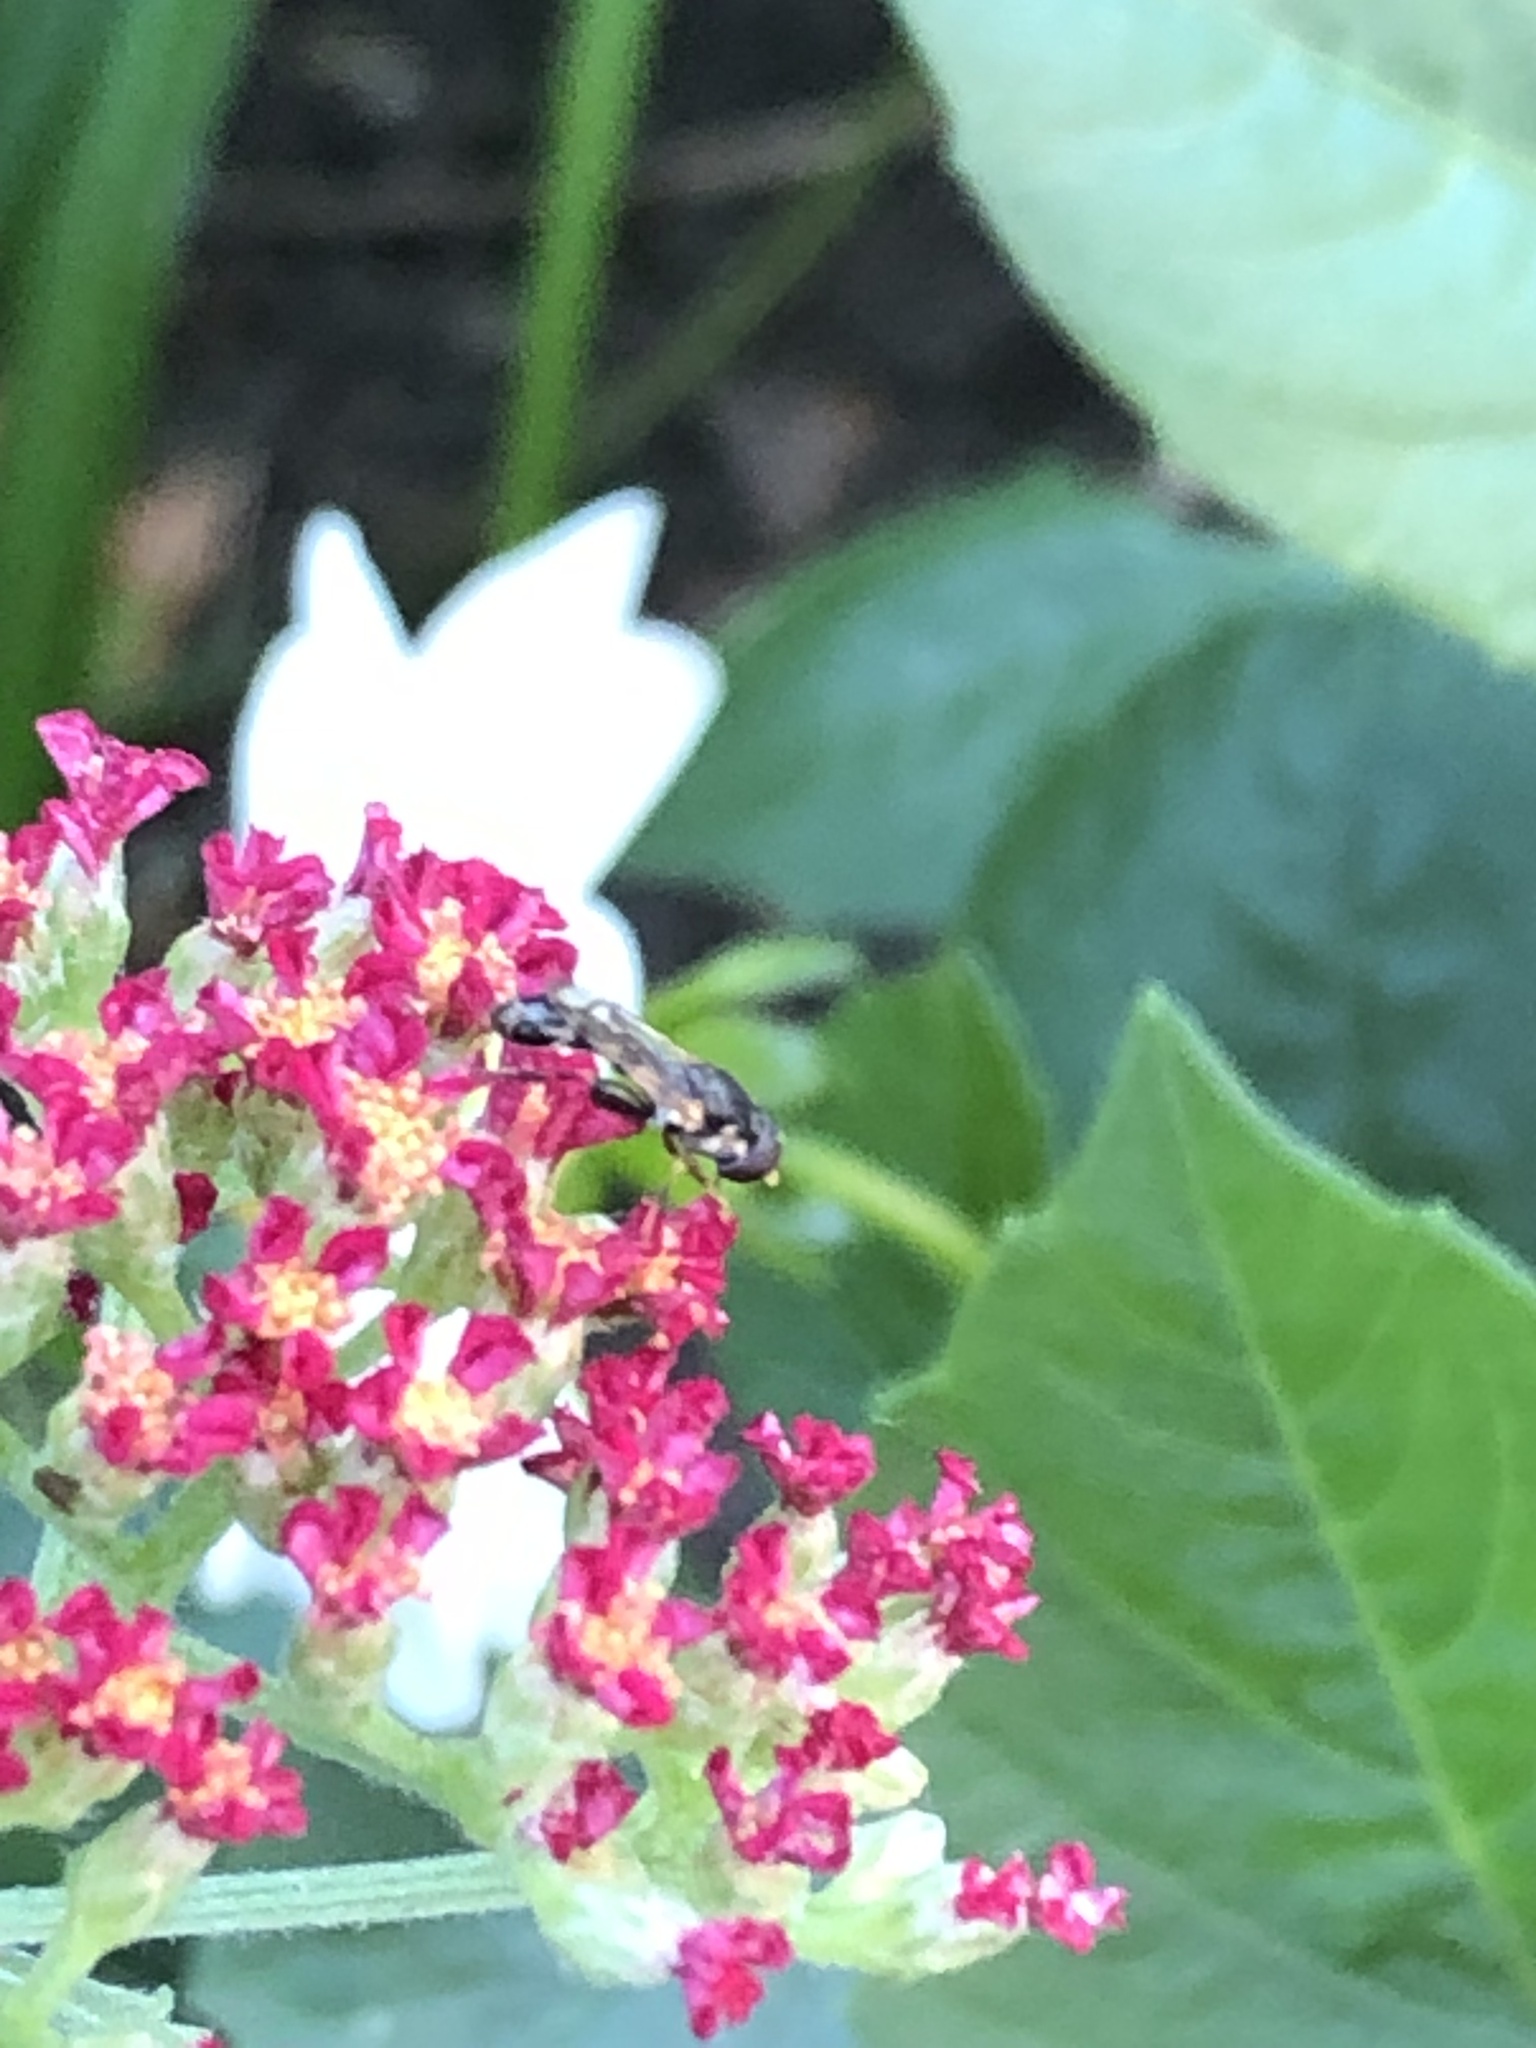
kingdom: Animalia
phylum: Arthropoda
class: Insecta
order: Diptera
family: Syrphidae
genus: Syritta
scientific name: Syritta pipiens
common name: Hover fly
